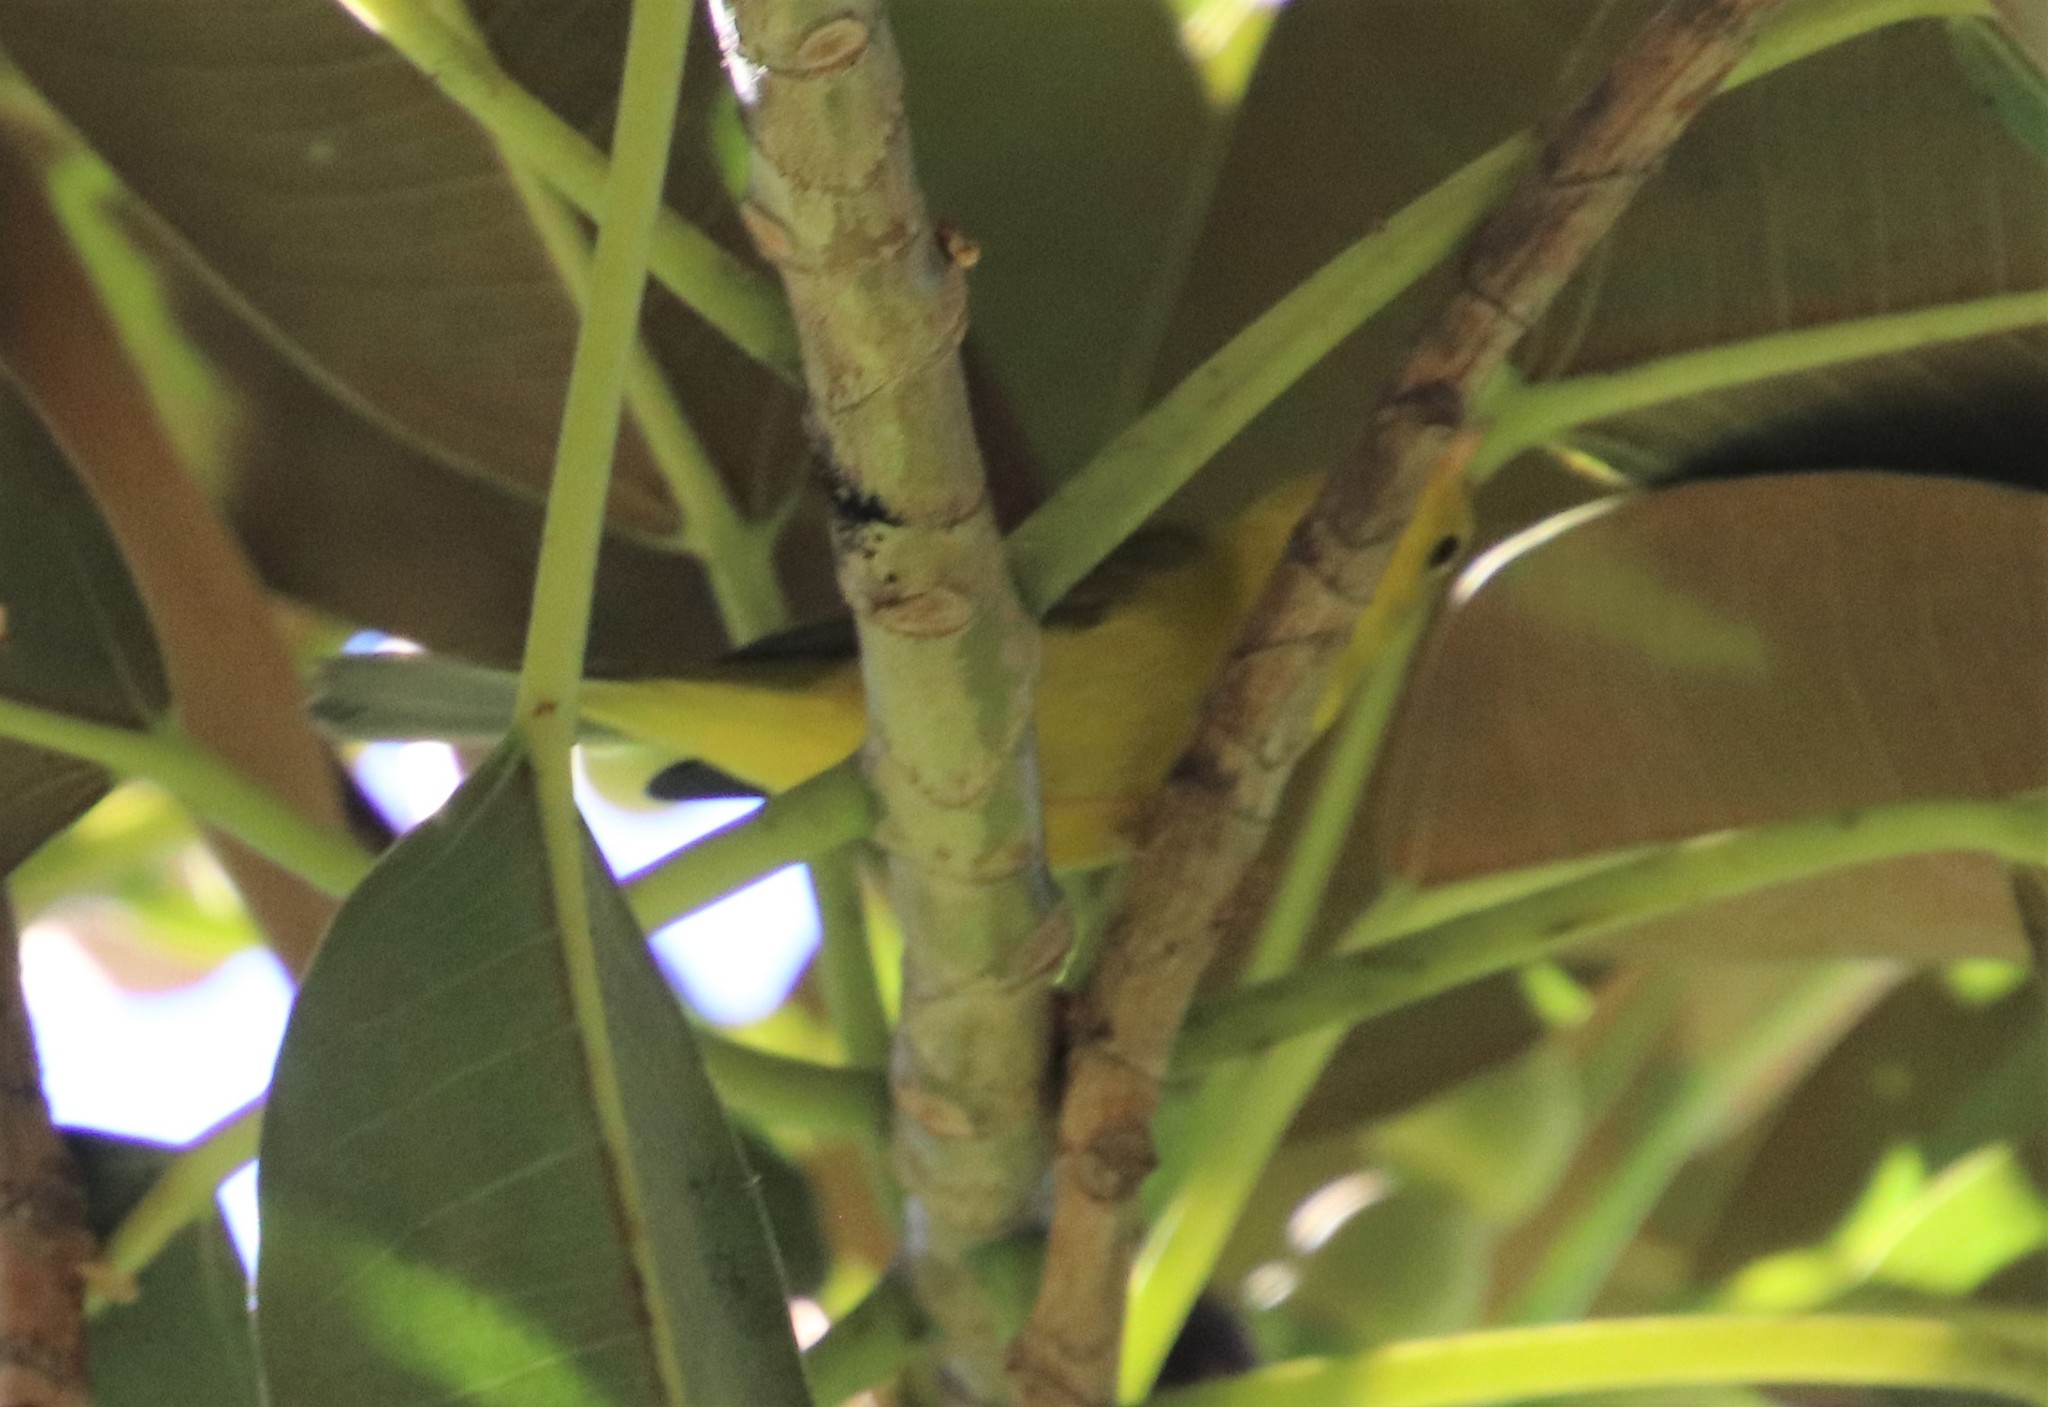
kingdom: Animalia
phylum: Chordata
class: Aves
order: Passeriformes
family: Parulidae
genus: Cardellina
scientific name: Cardellina pusilla
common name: Wilson's warbler
